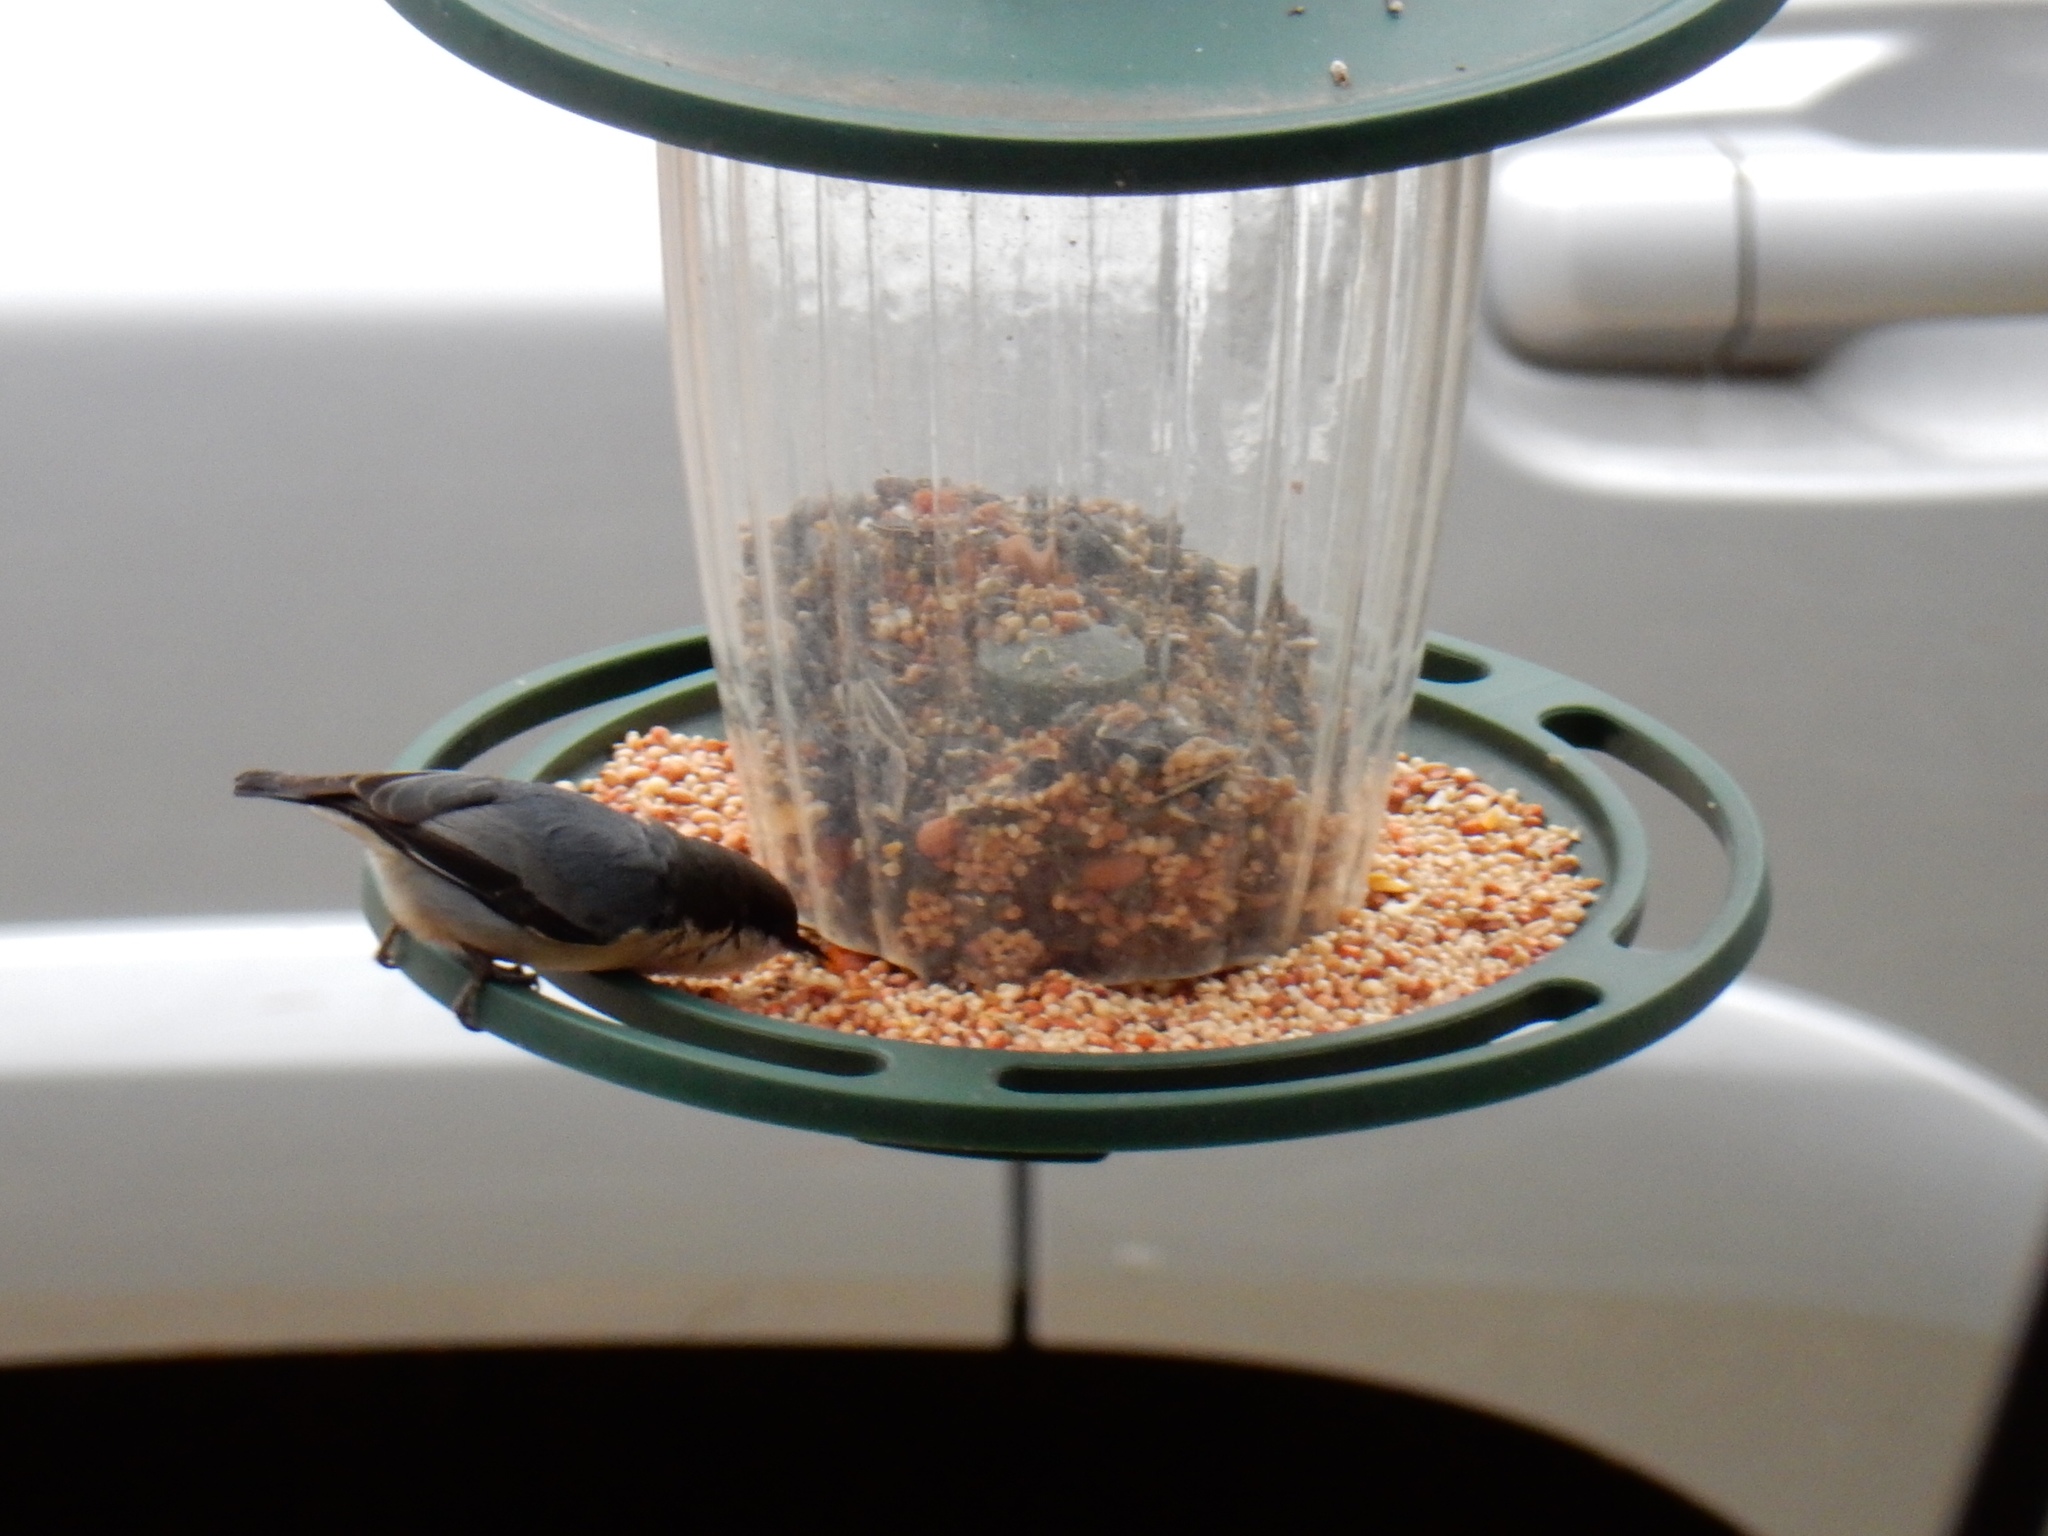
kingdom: Animalia
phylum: Chordata
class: Aves
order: Passeriformes
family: Sittidae
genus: Sitta
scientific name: Sitta pygmaea
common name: Pygmy nuthatch
